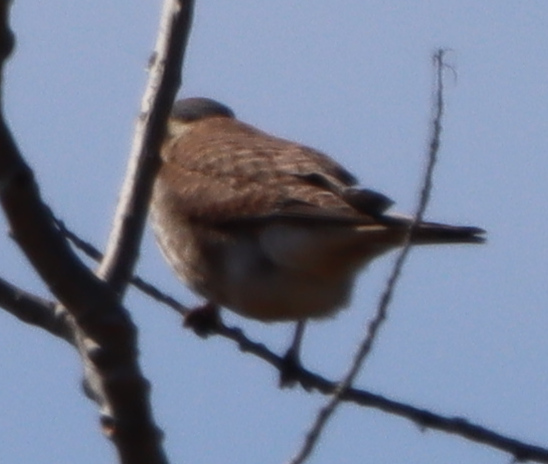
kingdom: Animalia
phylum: Chordata
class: Aves
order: Falconiformes
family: Falconidae
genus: Falco
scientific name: Falco sparverius
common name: American kestrel
